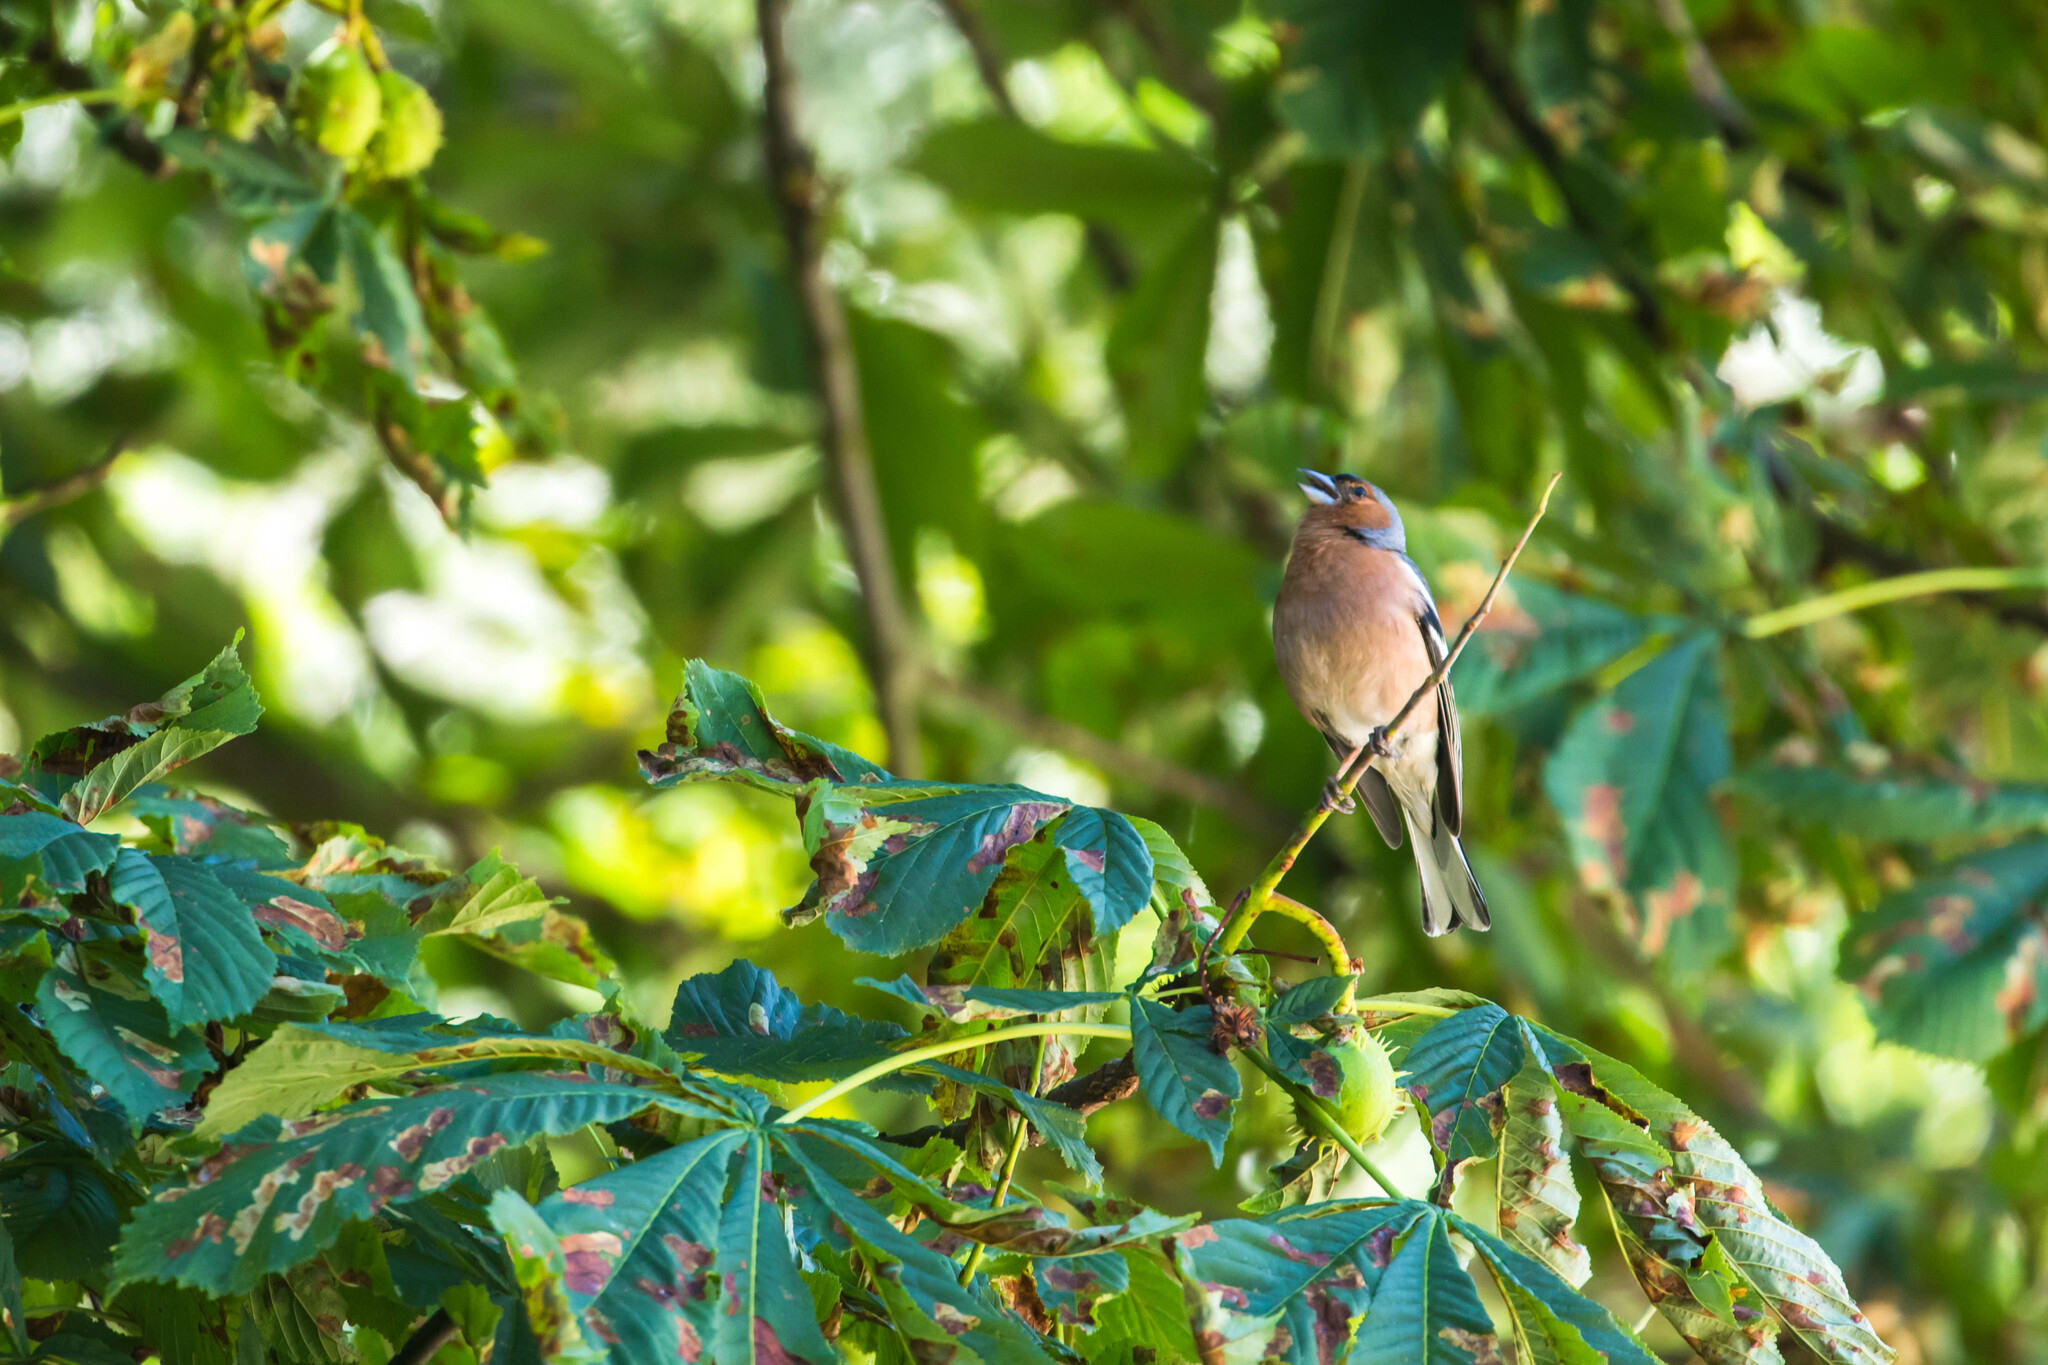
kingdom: Animalia
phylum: Chordata
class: Aves
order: Passeriformes
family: Fringillidae
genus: Fringilla
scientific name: Fringilla coelebs
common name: Common chaffinch
